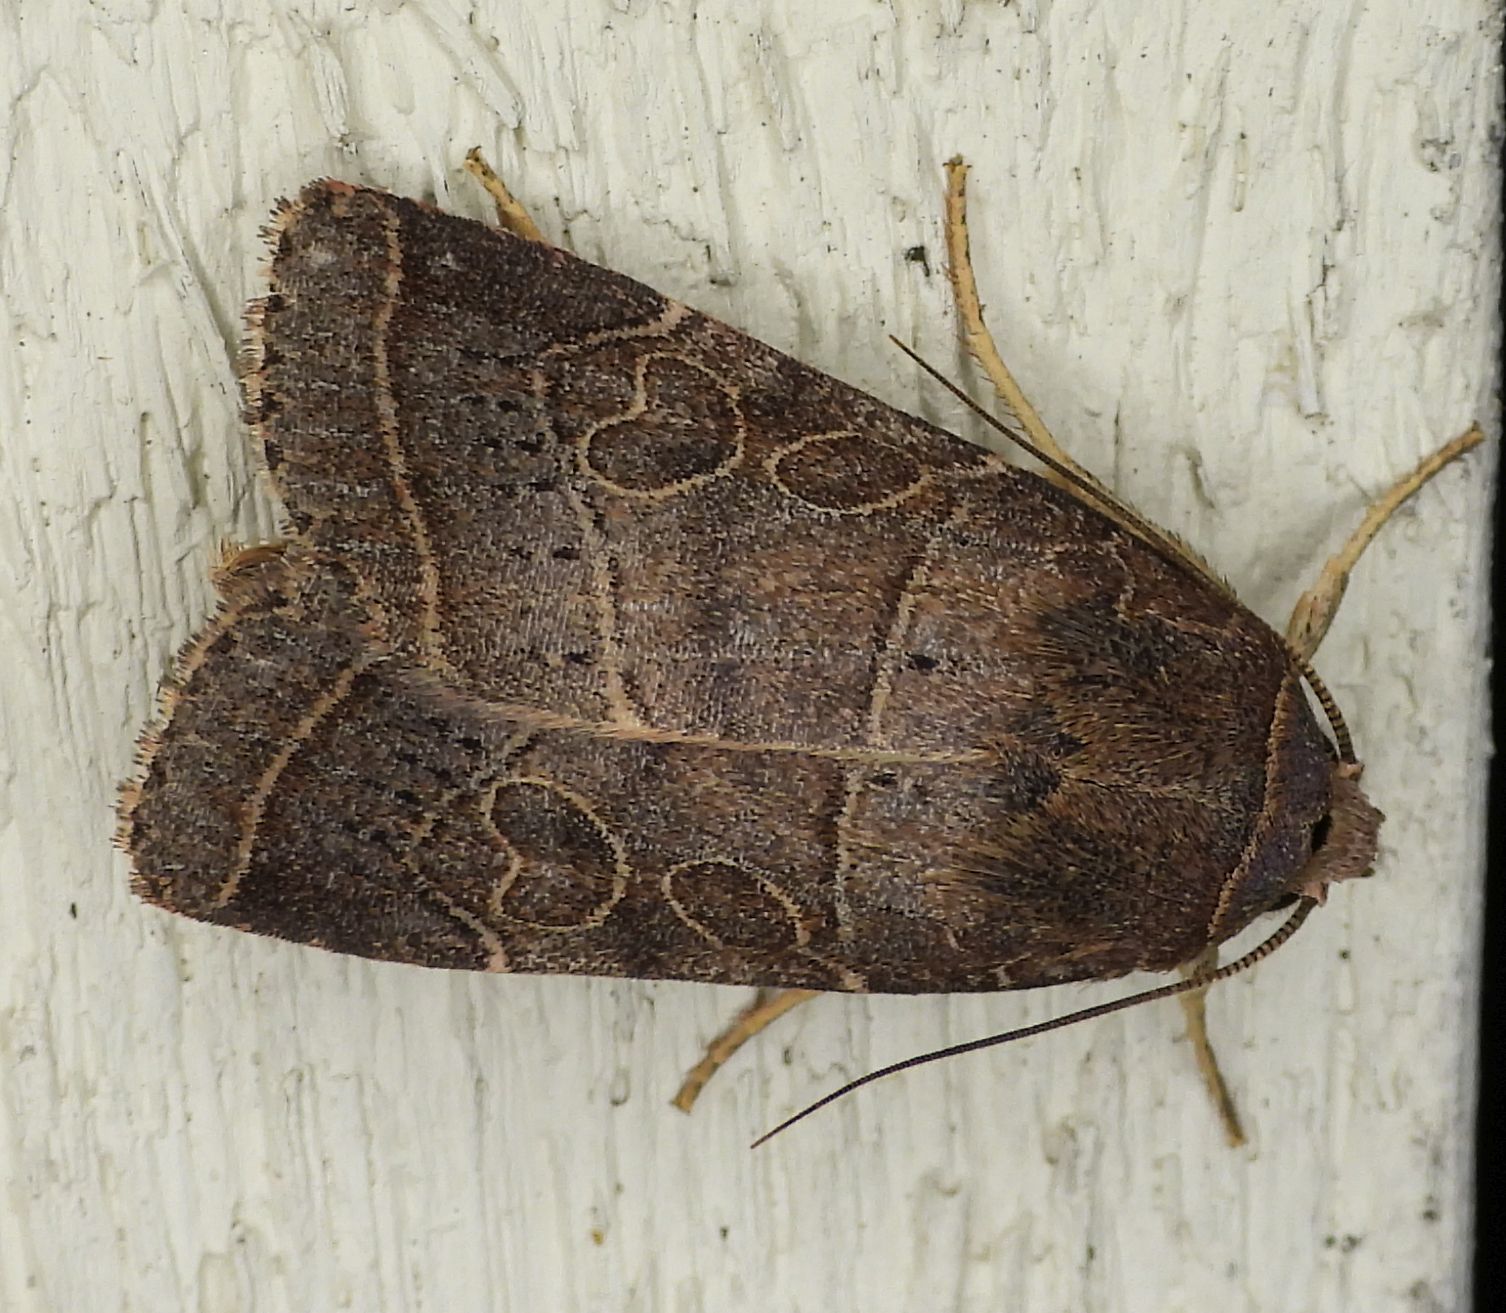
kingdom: Animalia
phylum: Arthropoda
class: Insecta
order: Lepidoptera
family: Noctuidae
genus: Orthodes
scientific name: Orthodes majuscula
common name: Rustic quaker
